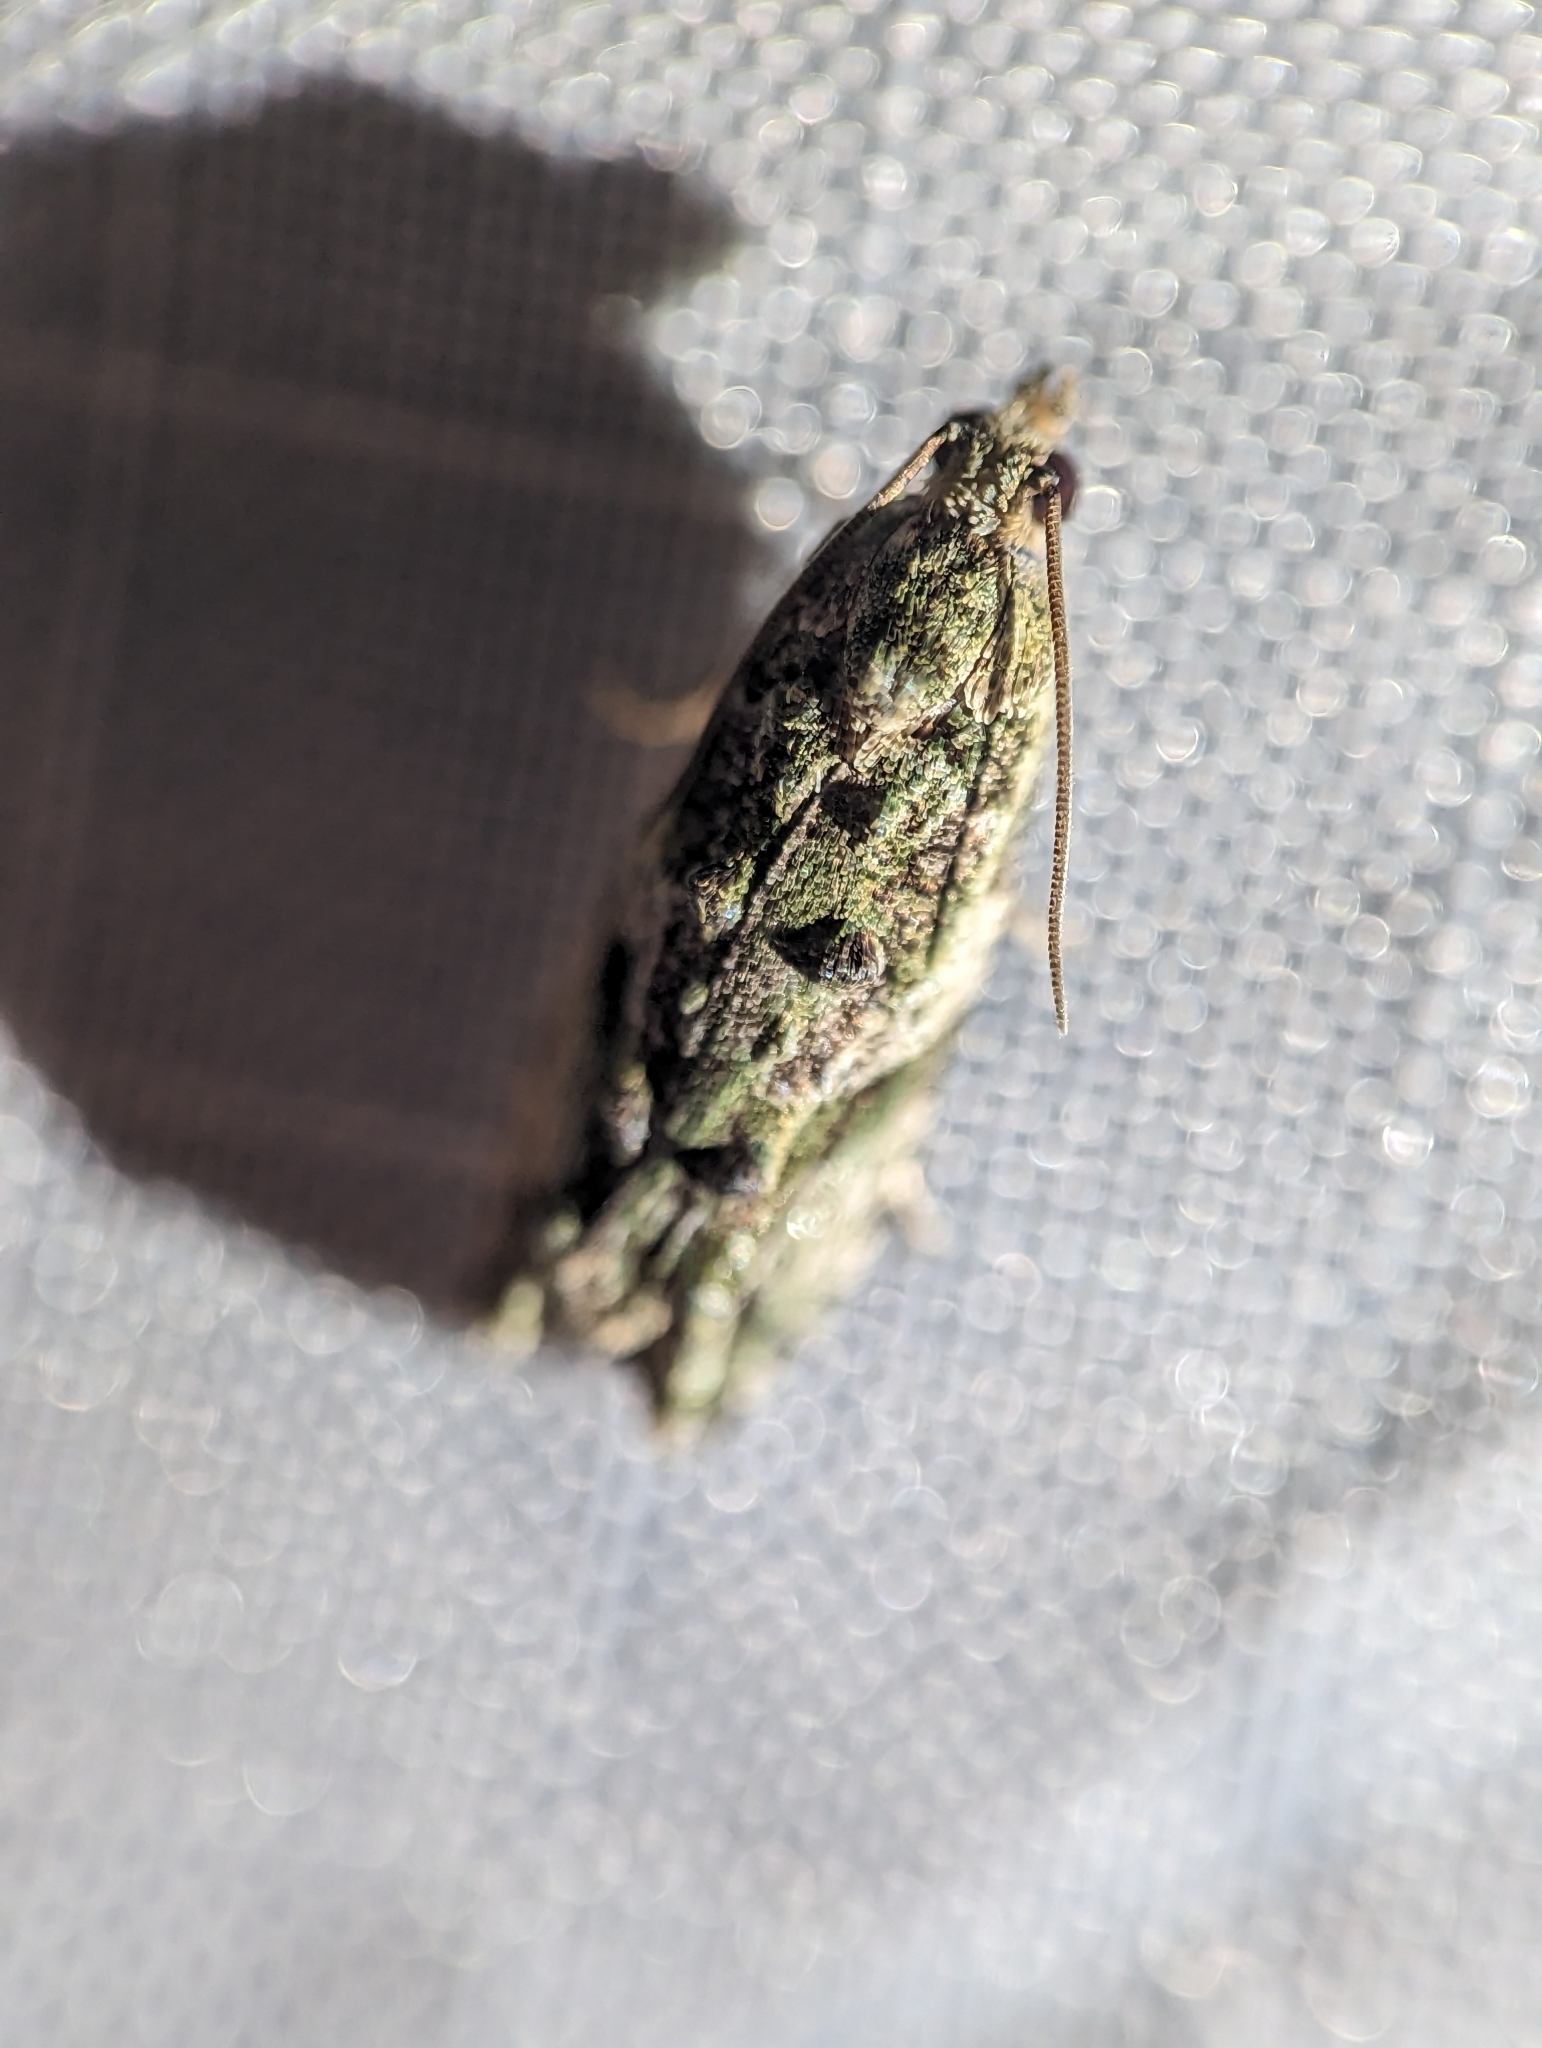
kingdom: Animalia
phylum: Arthropoda
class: Insecta
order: Lepidoptera
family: Tortricidae
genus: Proteoteras
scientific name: Proteoteras aesculana
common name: Maple twig borer moth
